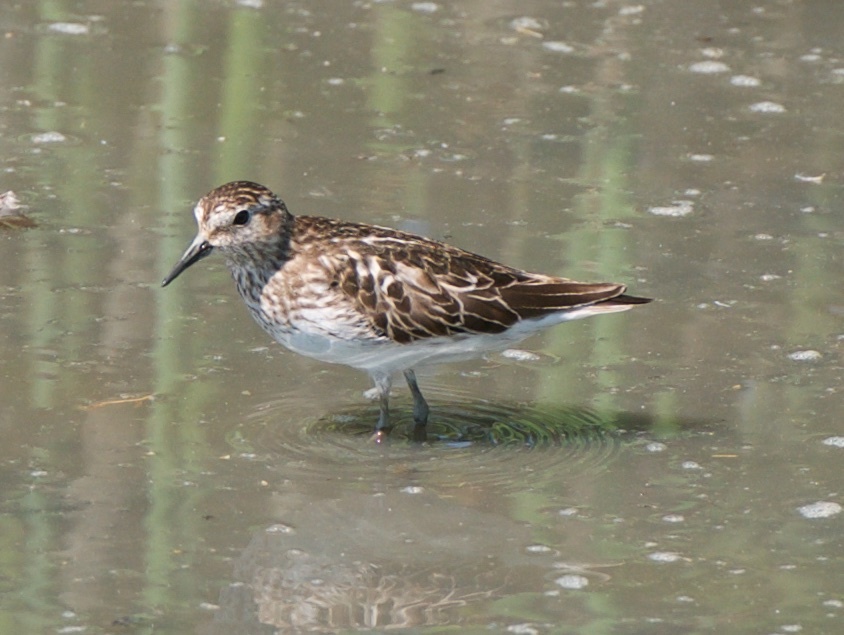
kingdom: Animalia
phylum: Chordata
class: Aves
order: Charadriiformes
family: Scolopacidae
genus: Calidris
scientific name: Calidris minutilla
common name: Least sandpiper
